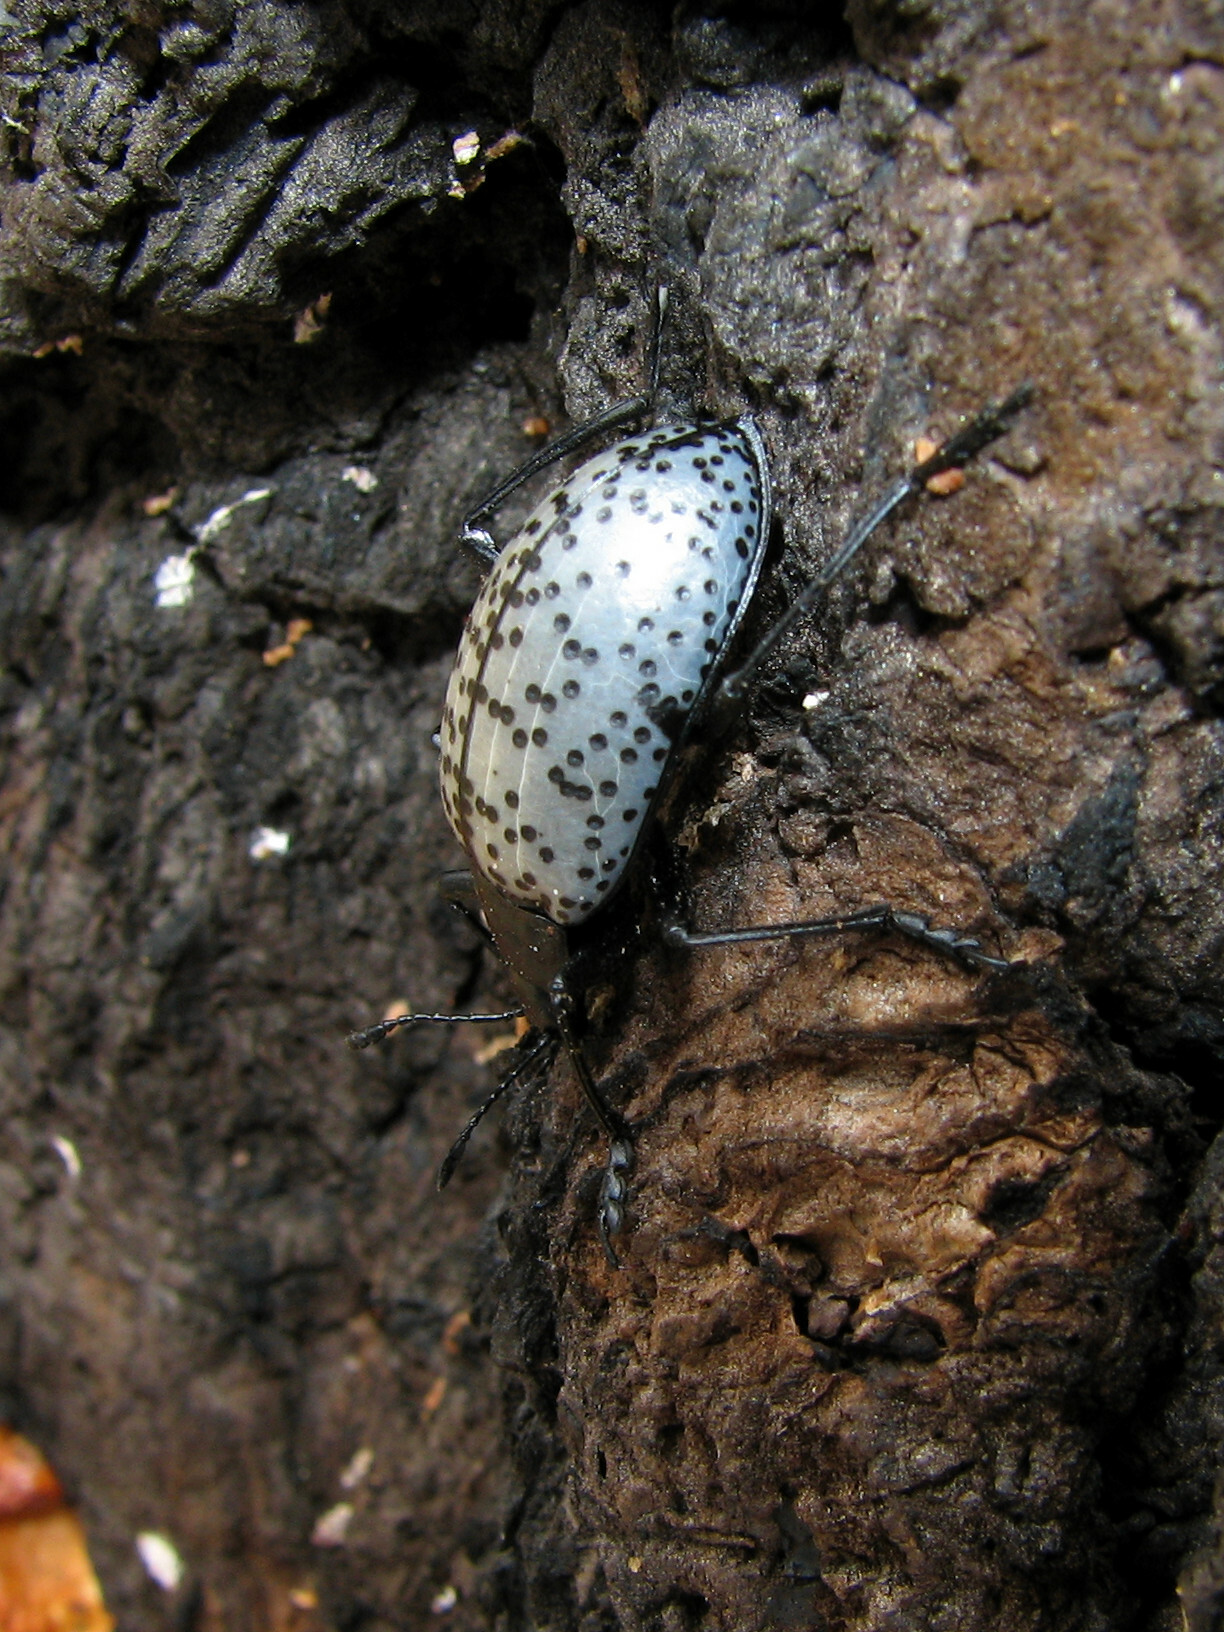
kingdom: Animalia
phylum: Arthropoda
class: Insecta
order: Coleoptera
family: Erotylidae
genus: Gibbifer
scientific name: Gibbifer californicus
